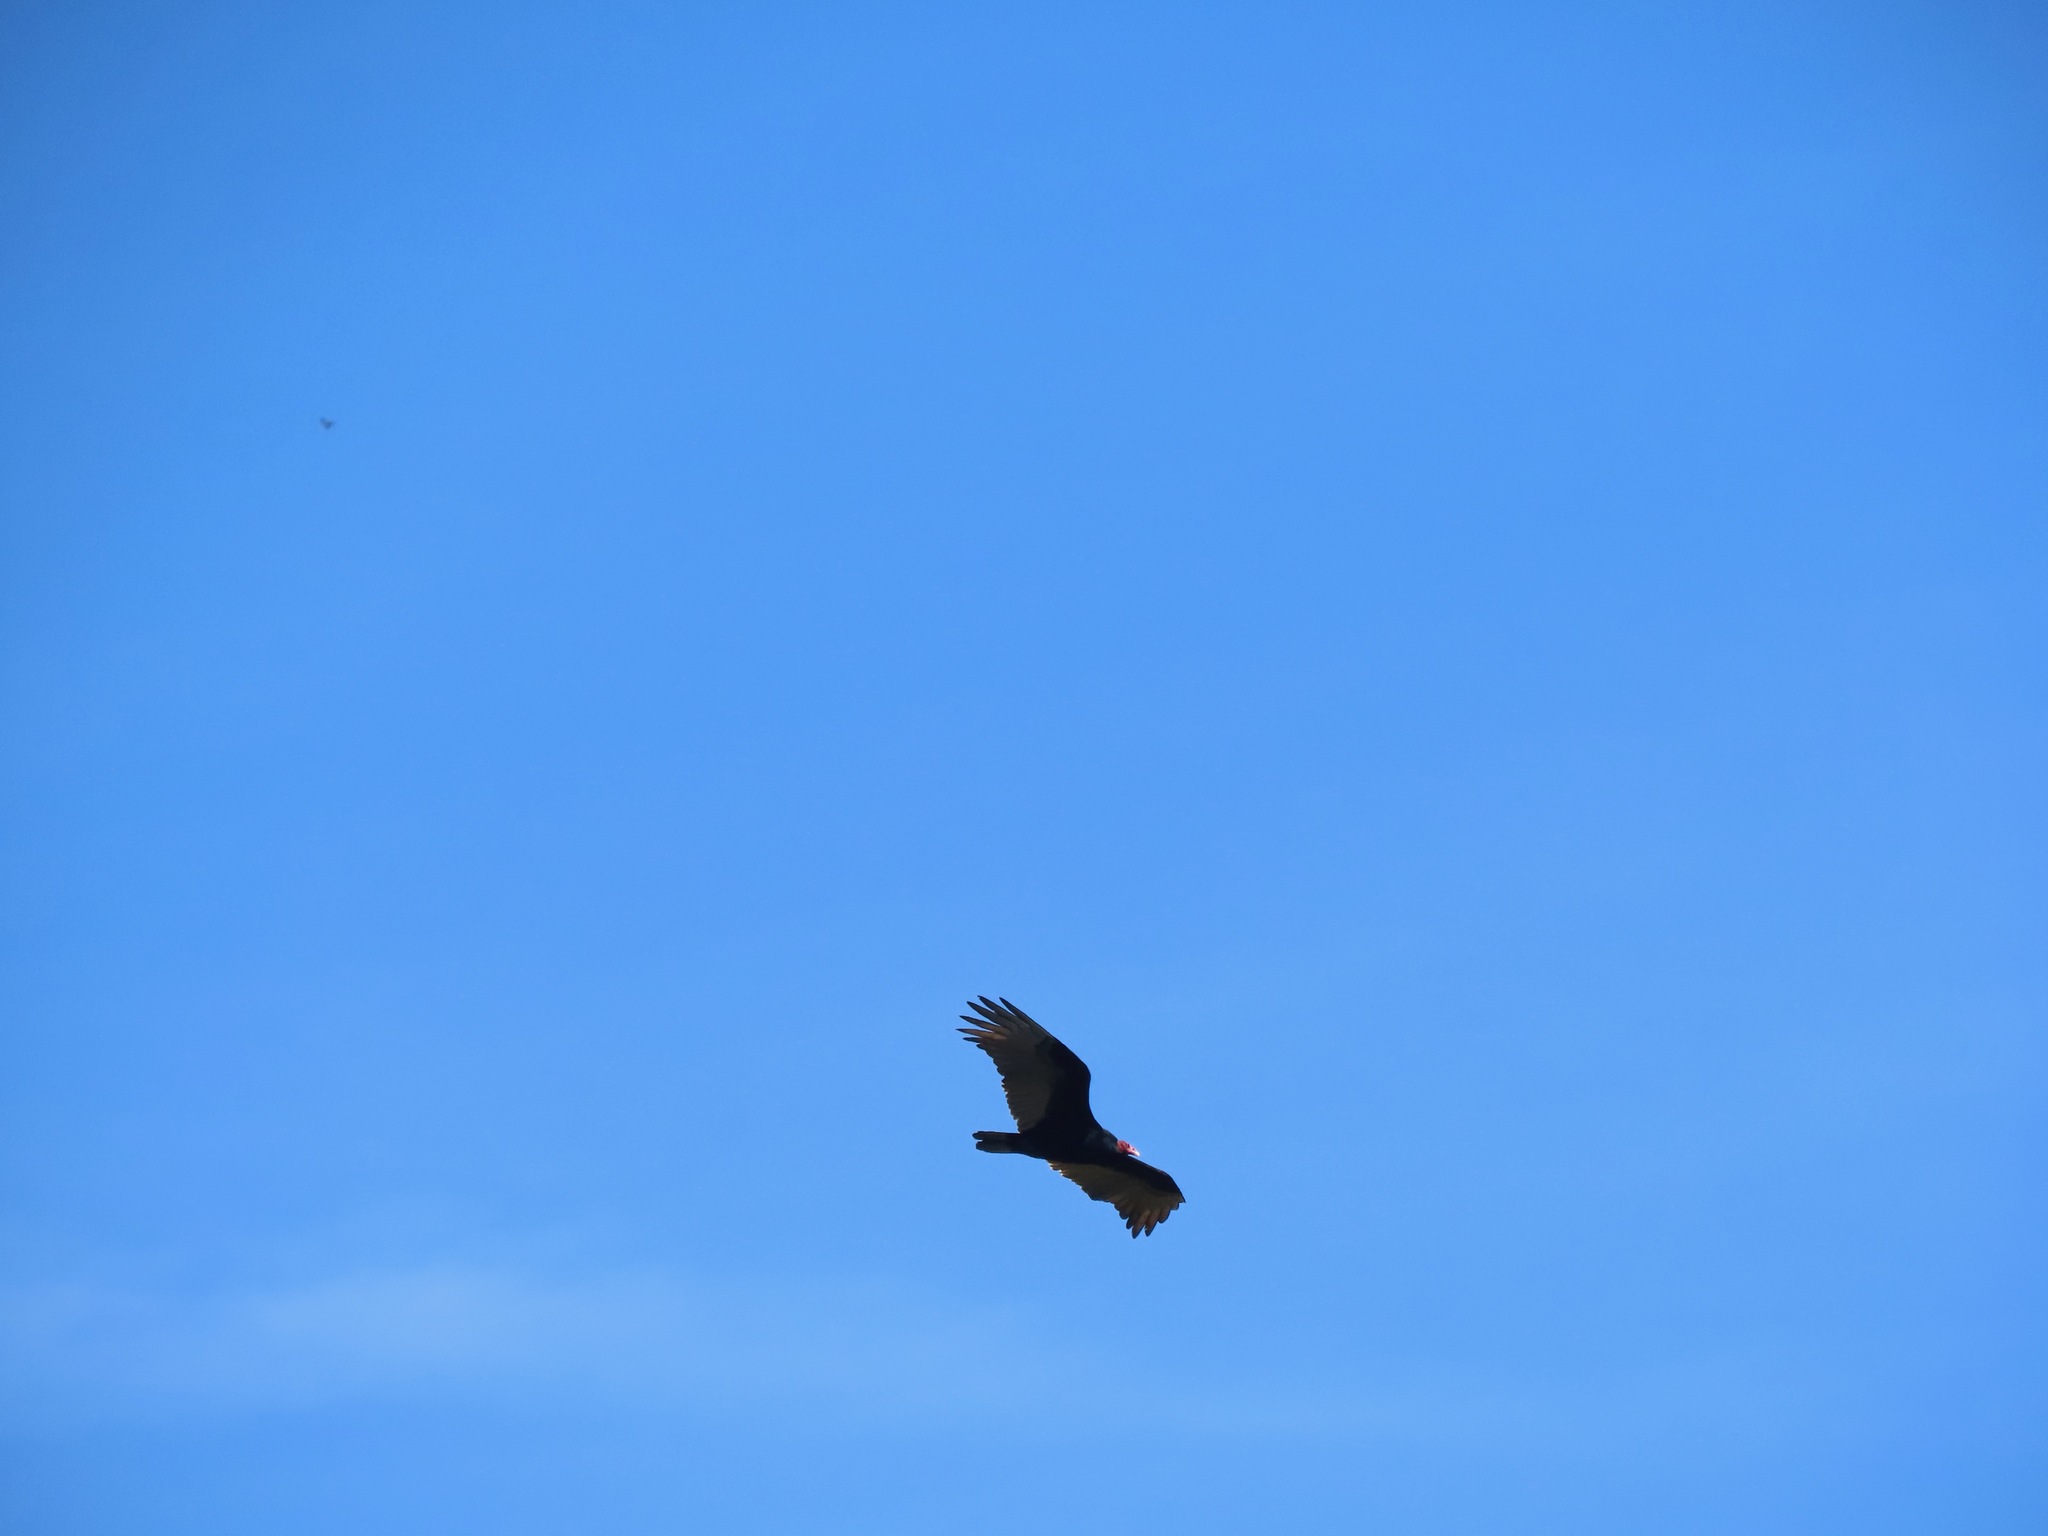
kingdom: Animalia
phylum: Chordata
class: Aves
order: Accipitriformes
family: Cathartidae
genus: Cathartes
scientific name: Cathartes aura
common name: Turkey vulture
